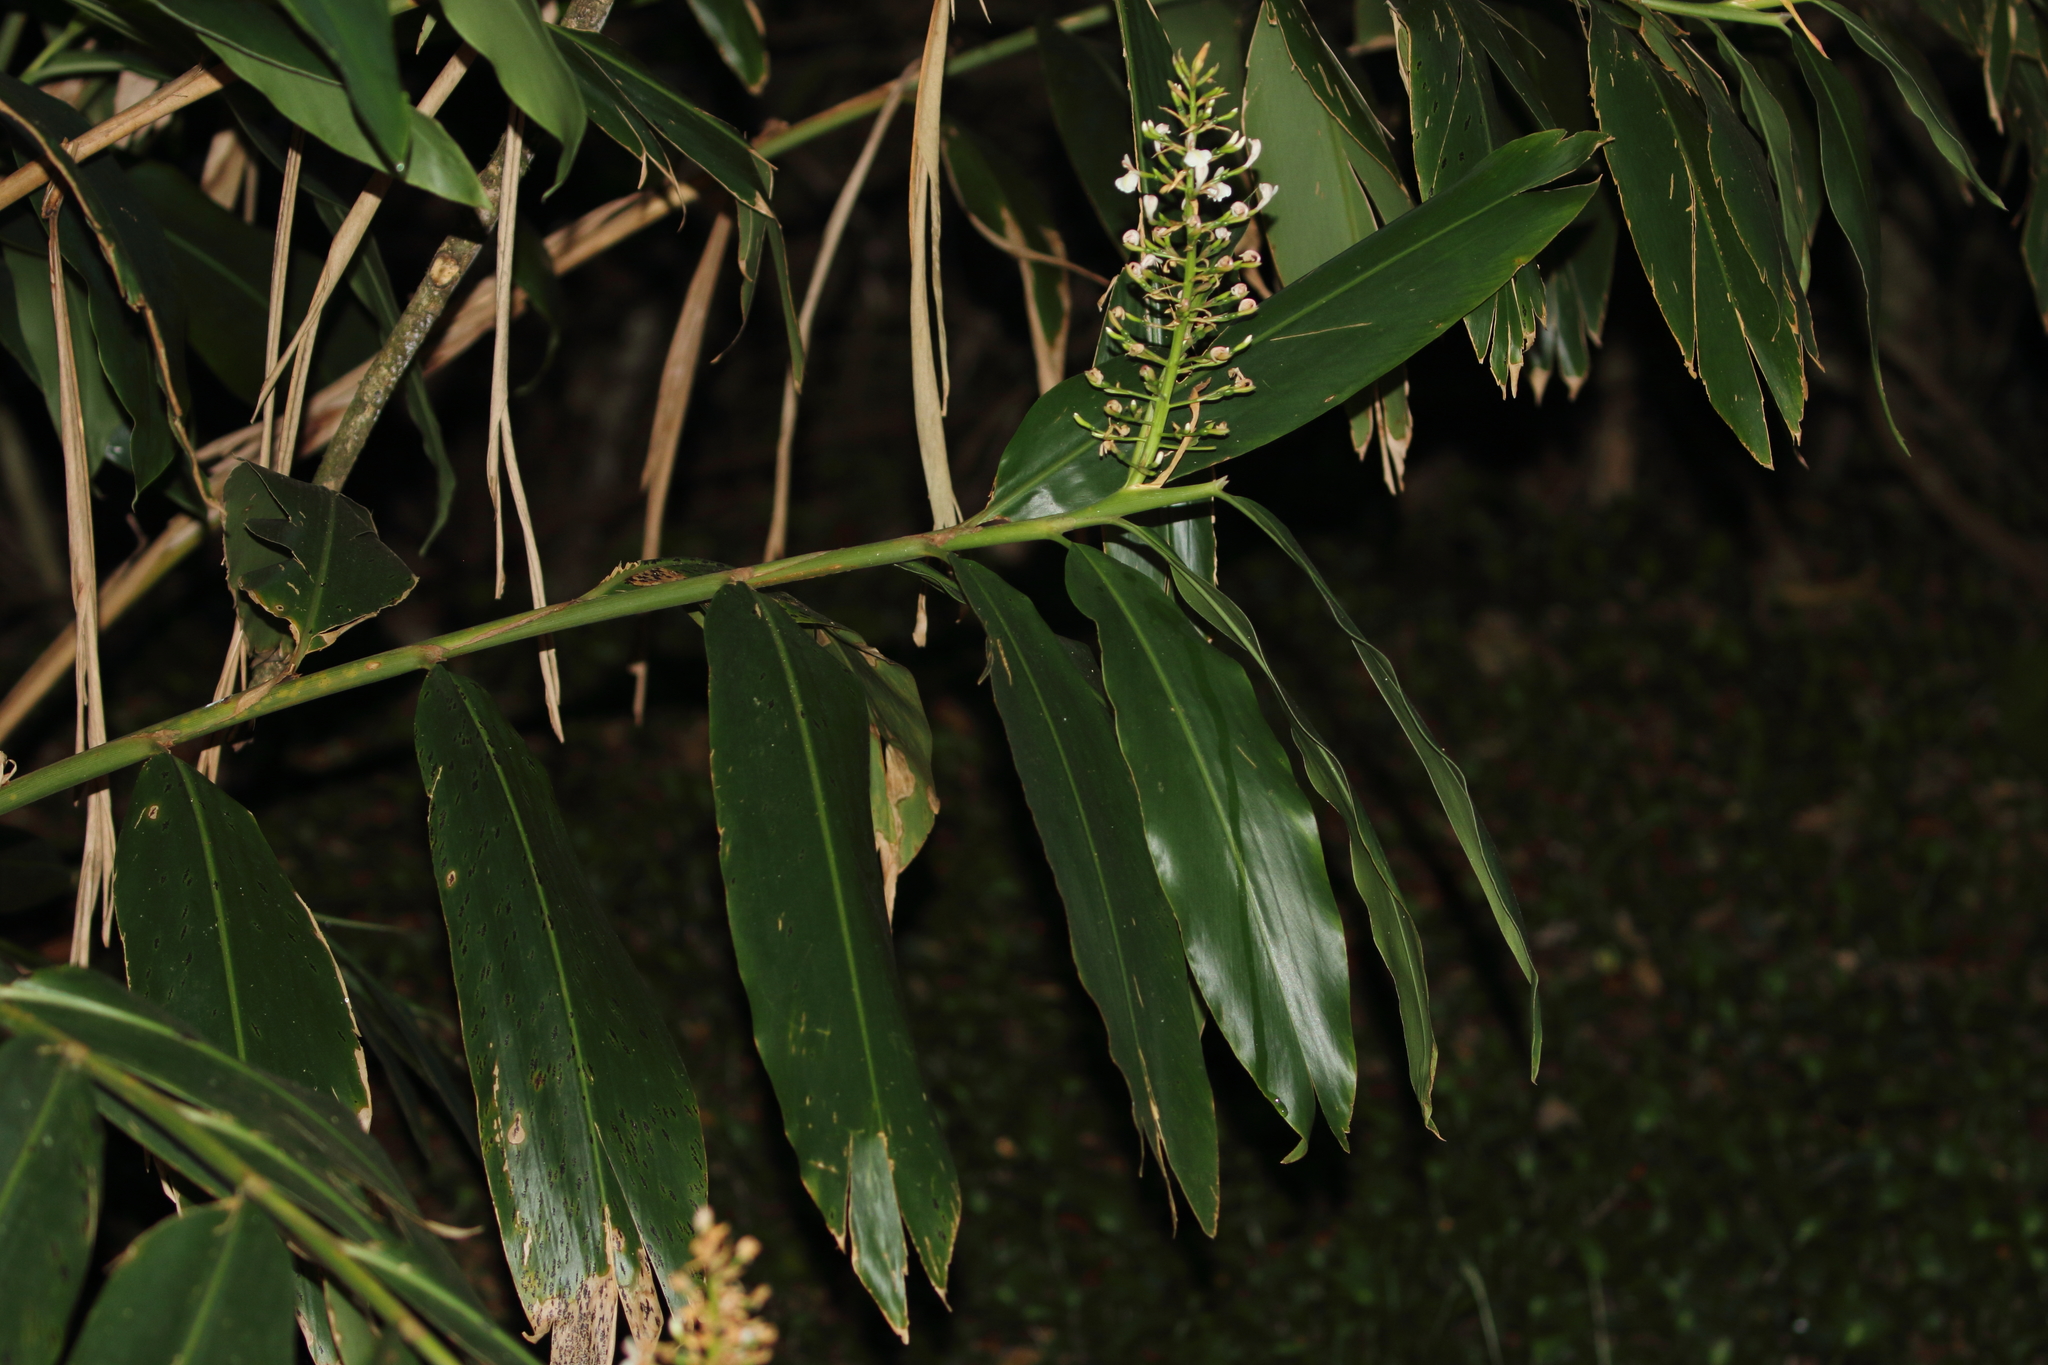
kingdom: Plantae
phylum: Tracheophyta
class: Liliopsida
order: Zingiberales
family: Zingiberaceae
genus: Alpinia
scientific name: Alpinia caerulea
